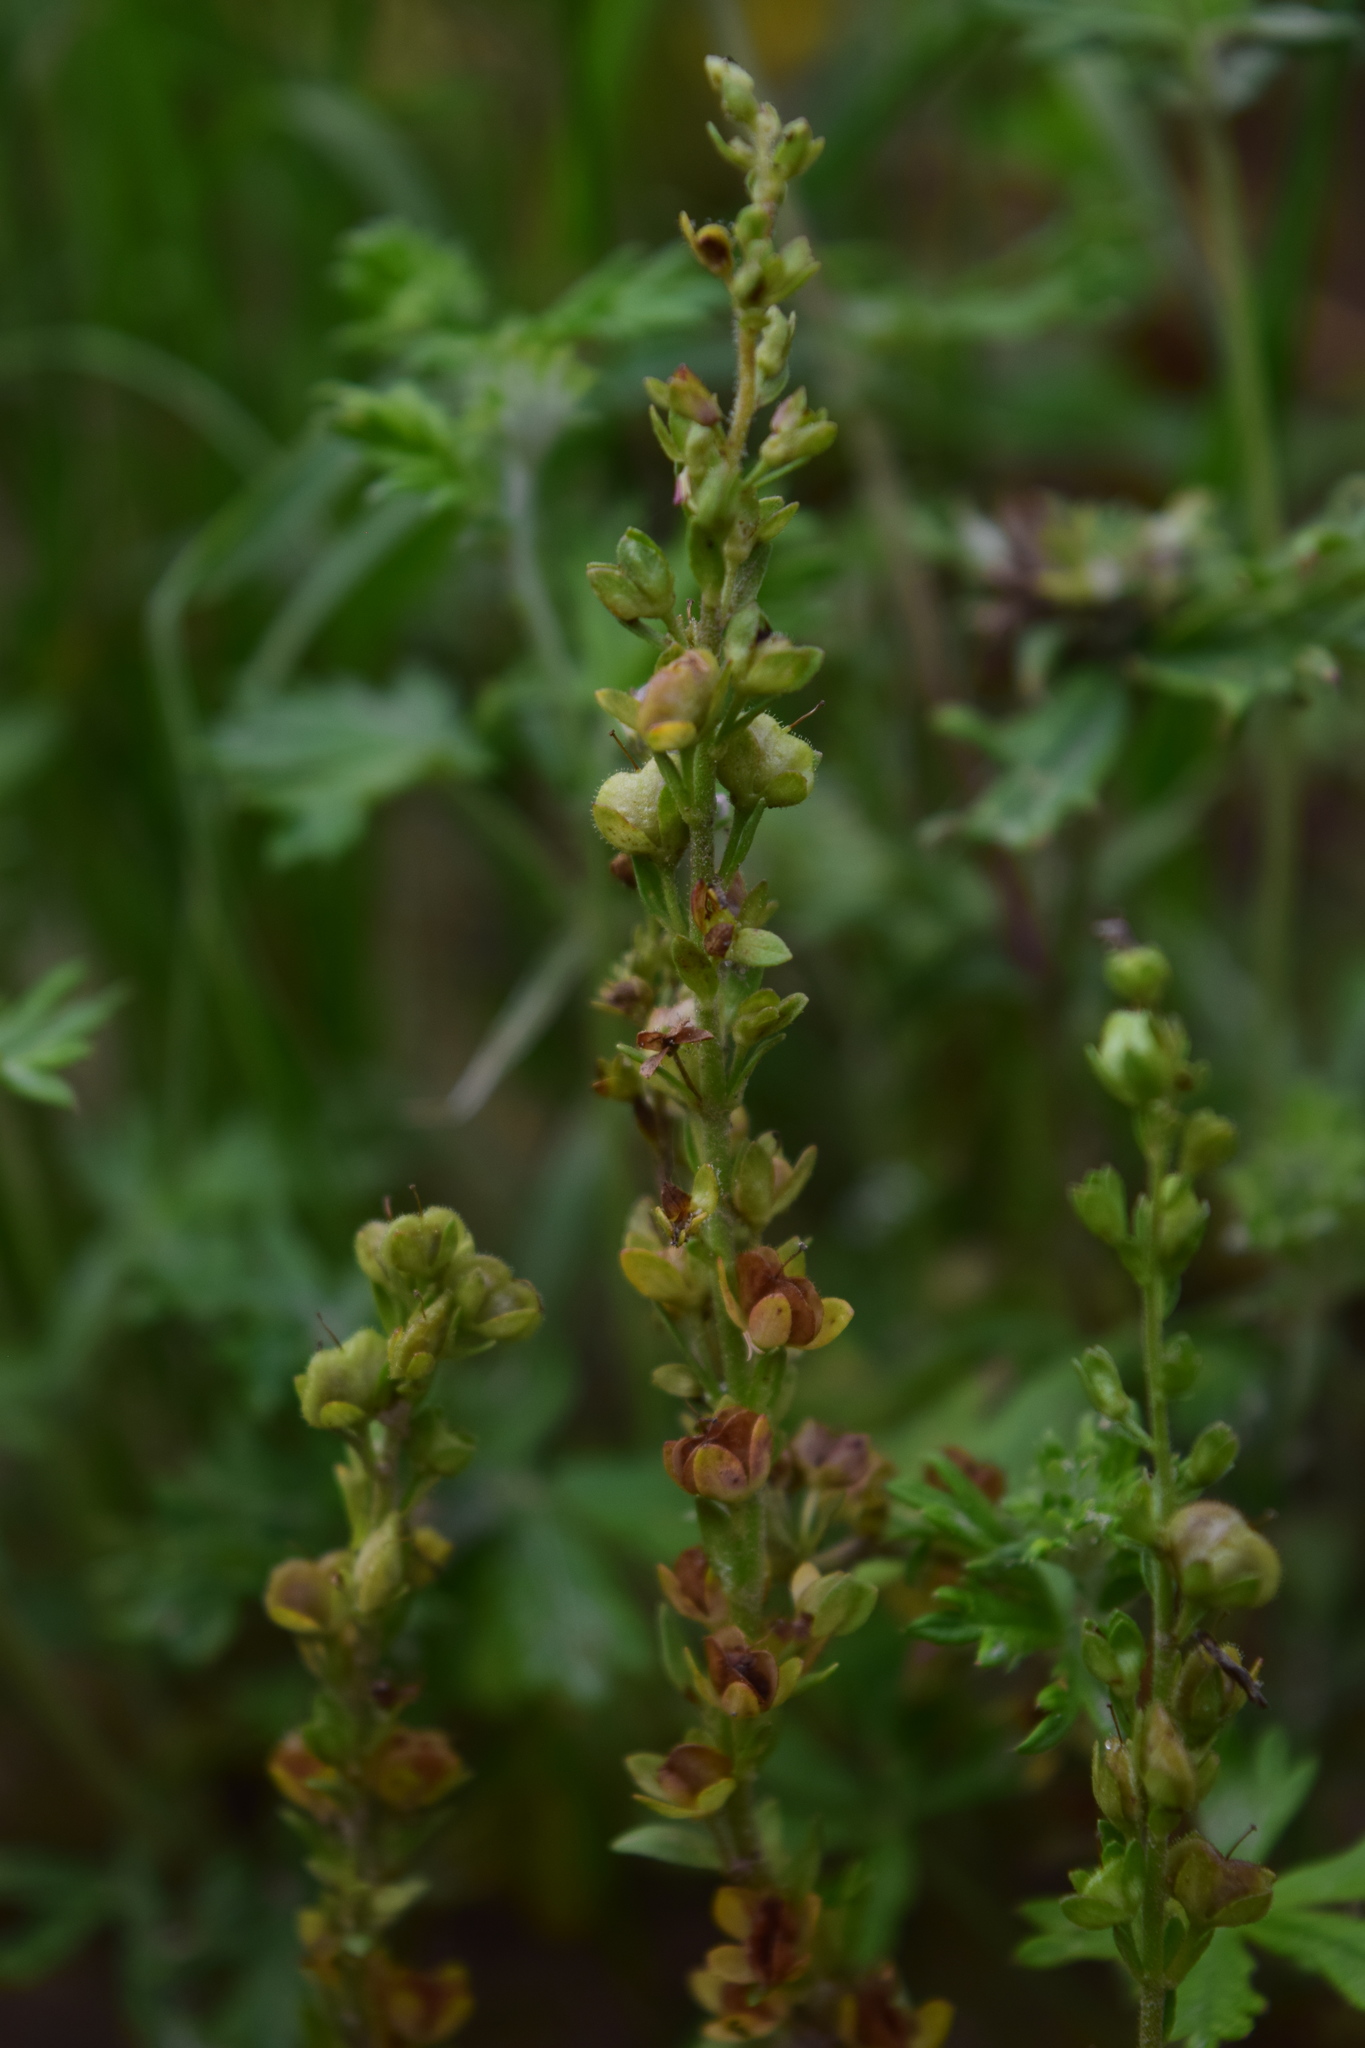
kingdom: Plantae
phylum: Tracheophyta
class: Magnoliopsida
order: Lamiales
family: Plantaginaceae
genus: Veronica
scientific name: Veronica serpyllifolia
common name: Thyme-leaved speedwell
